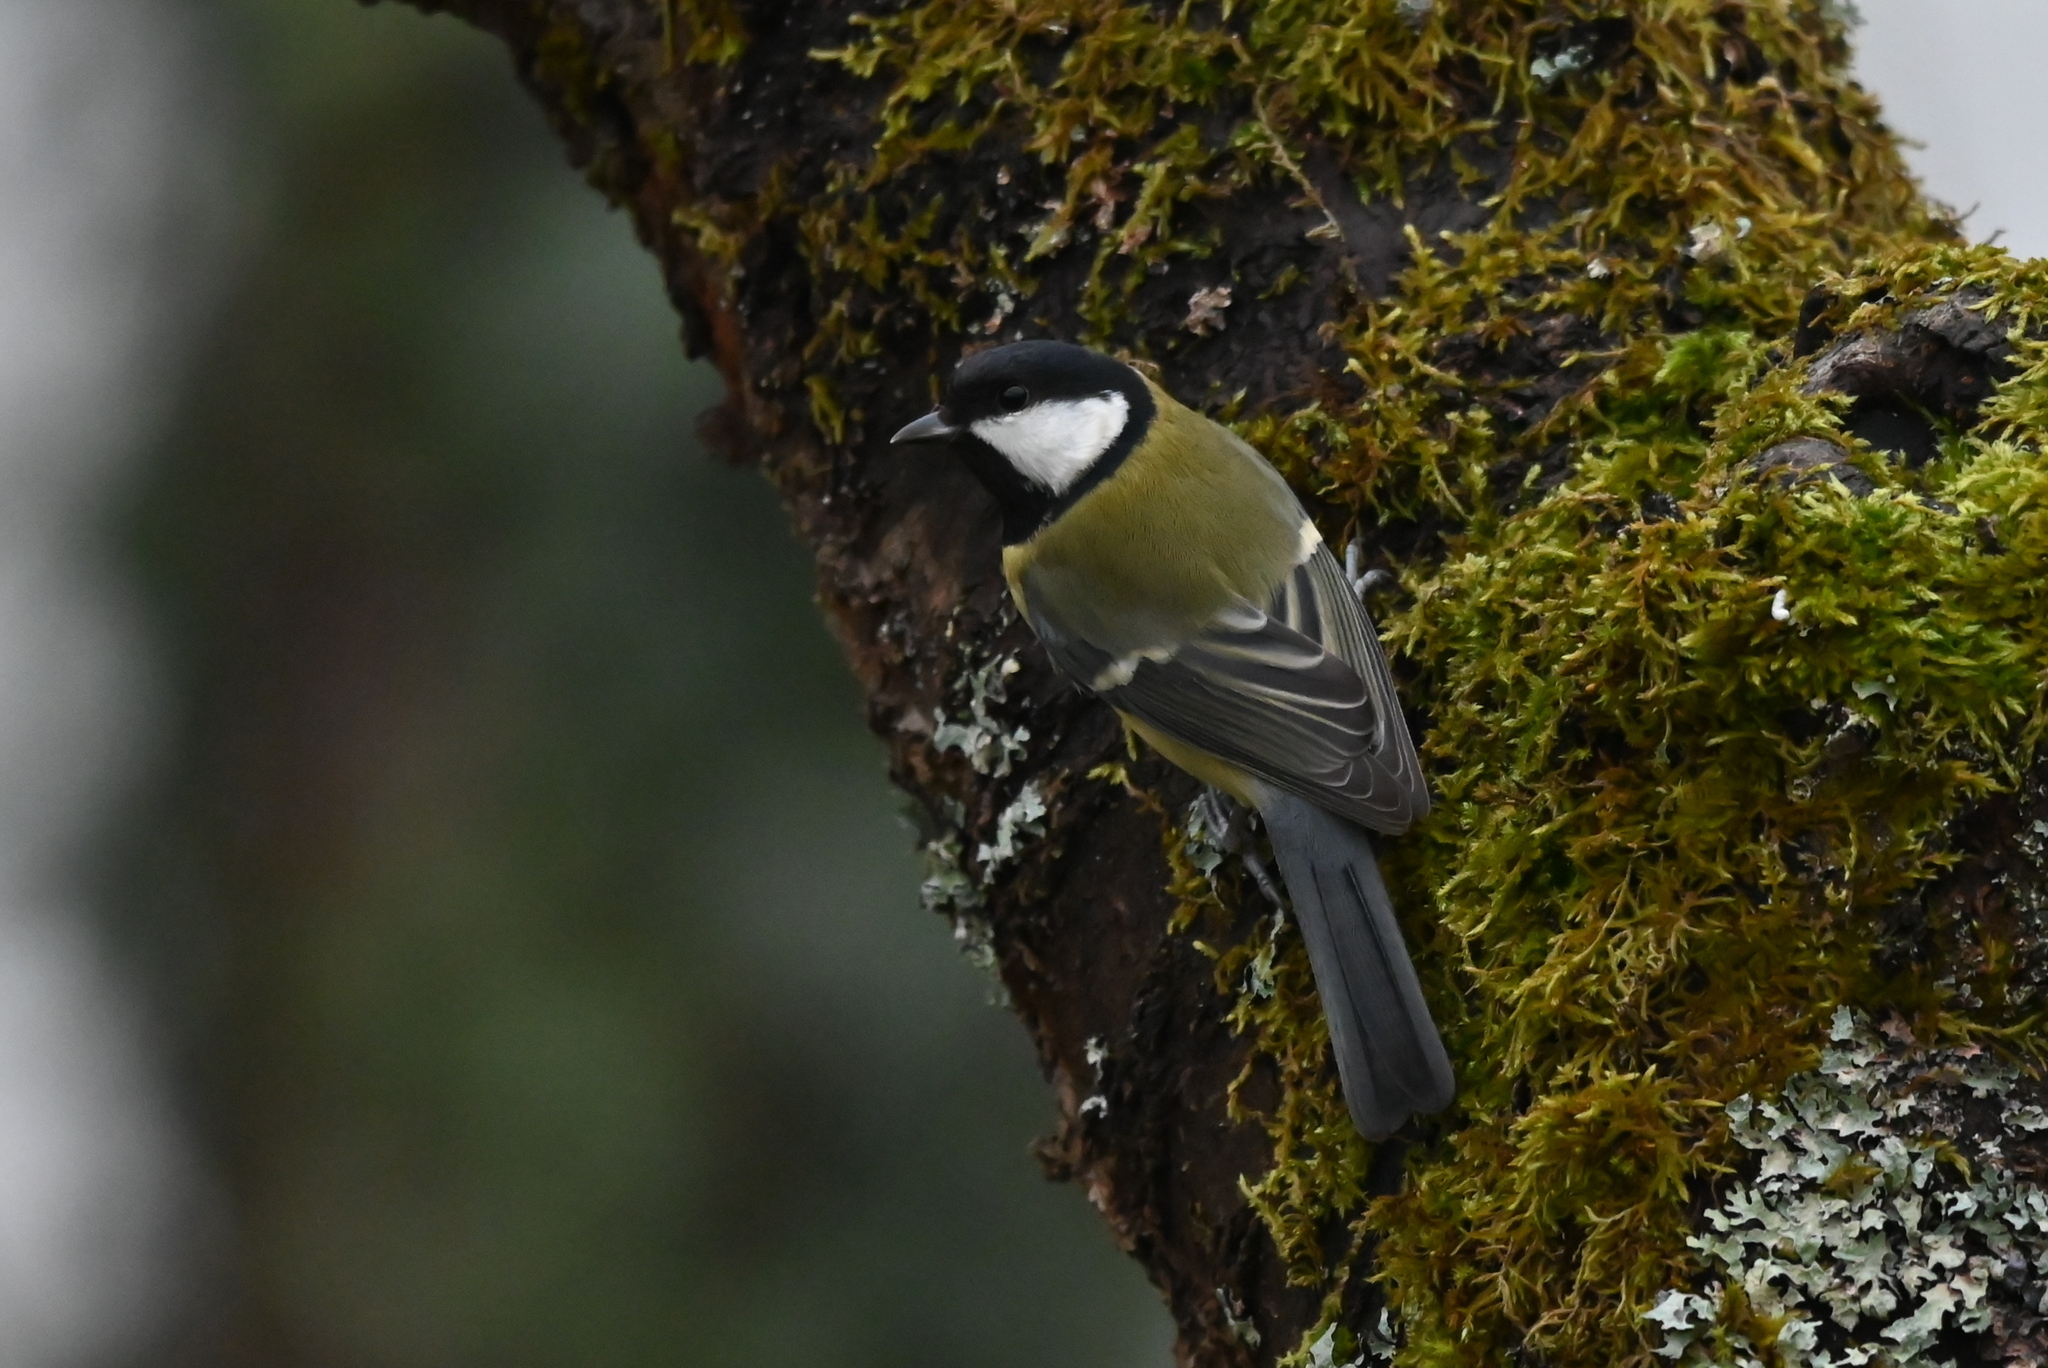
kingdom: Animalia
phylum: Chordata
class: Aves
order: Passeriformes
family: Paridae
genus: Parus
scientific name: Parus major
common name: Great tit
